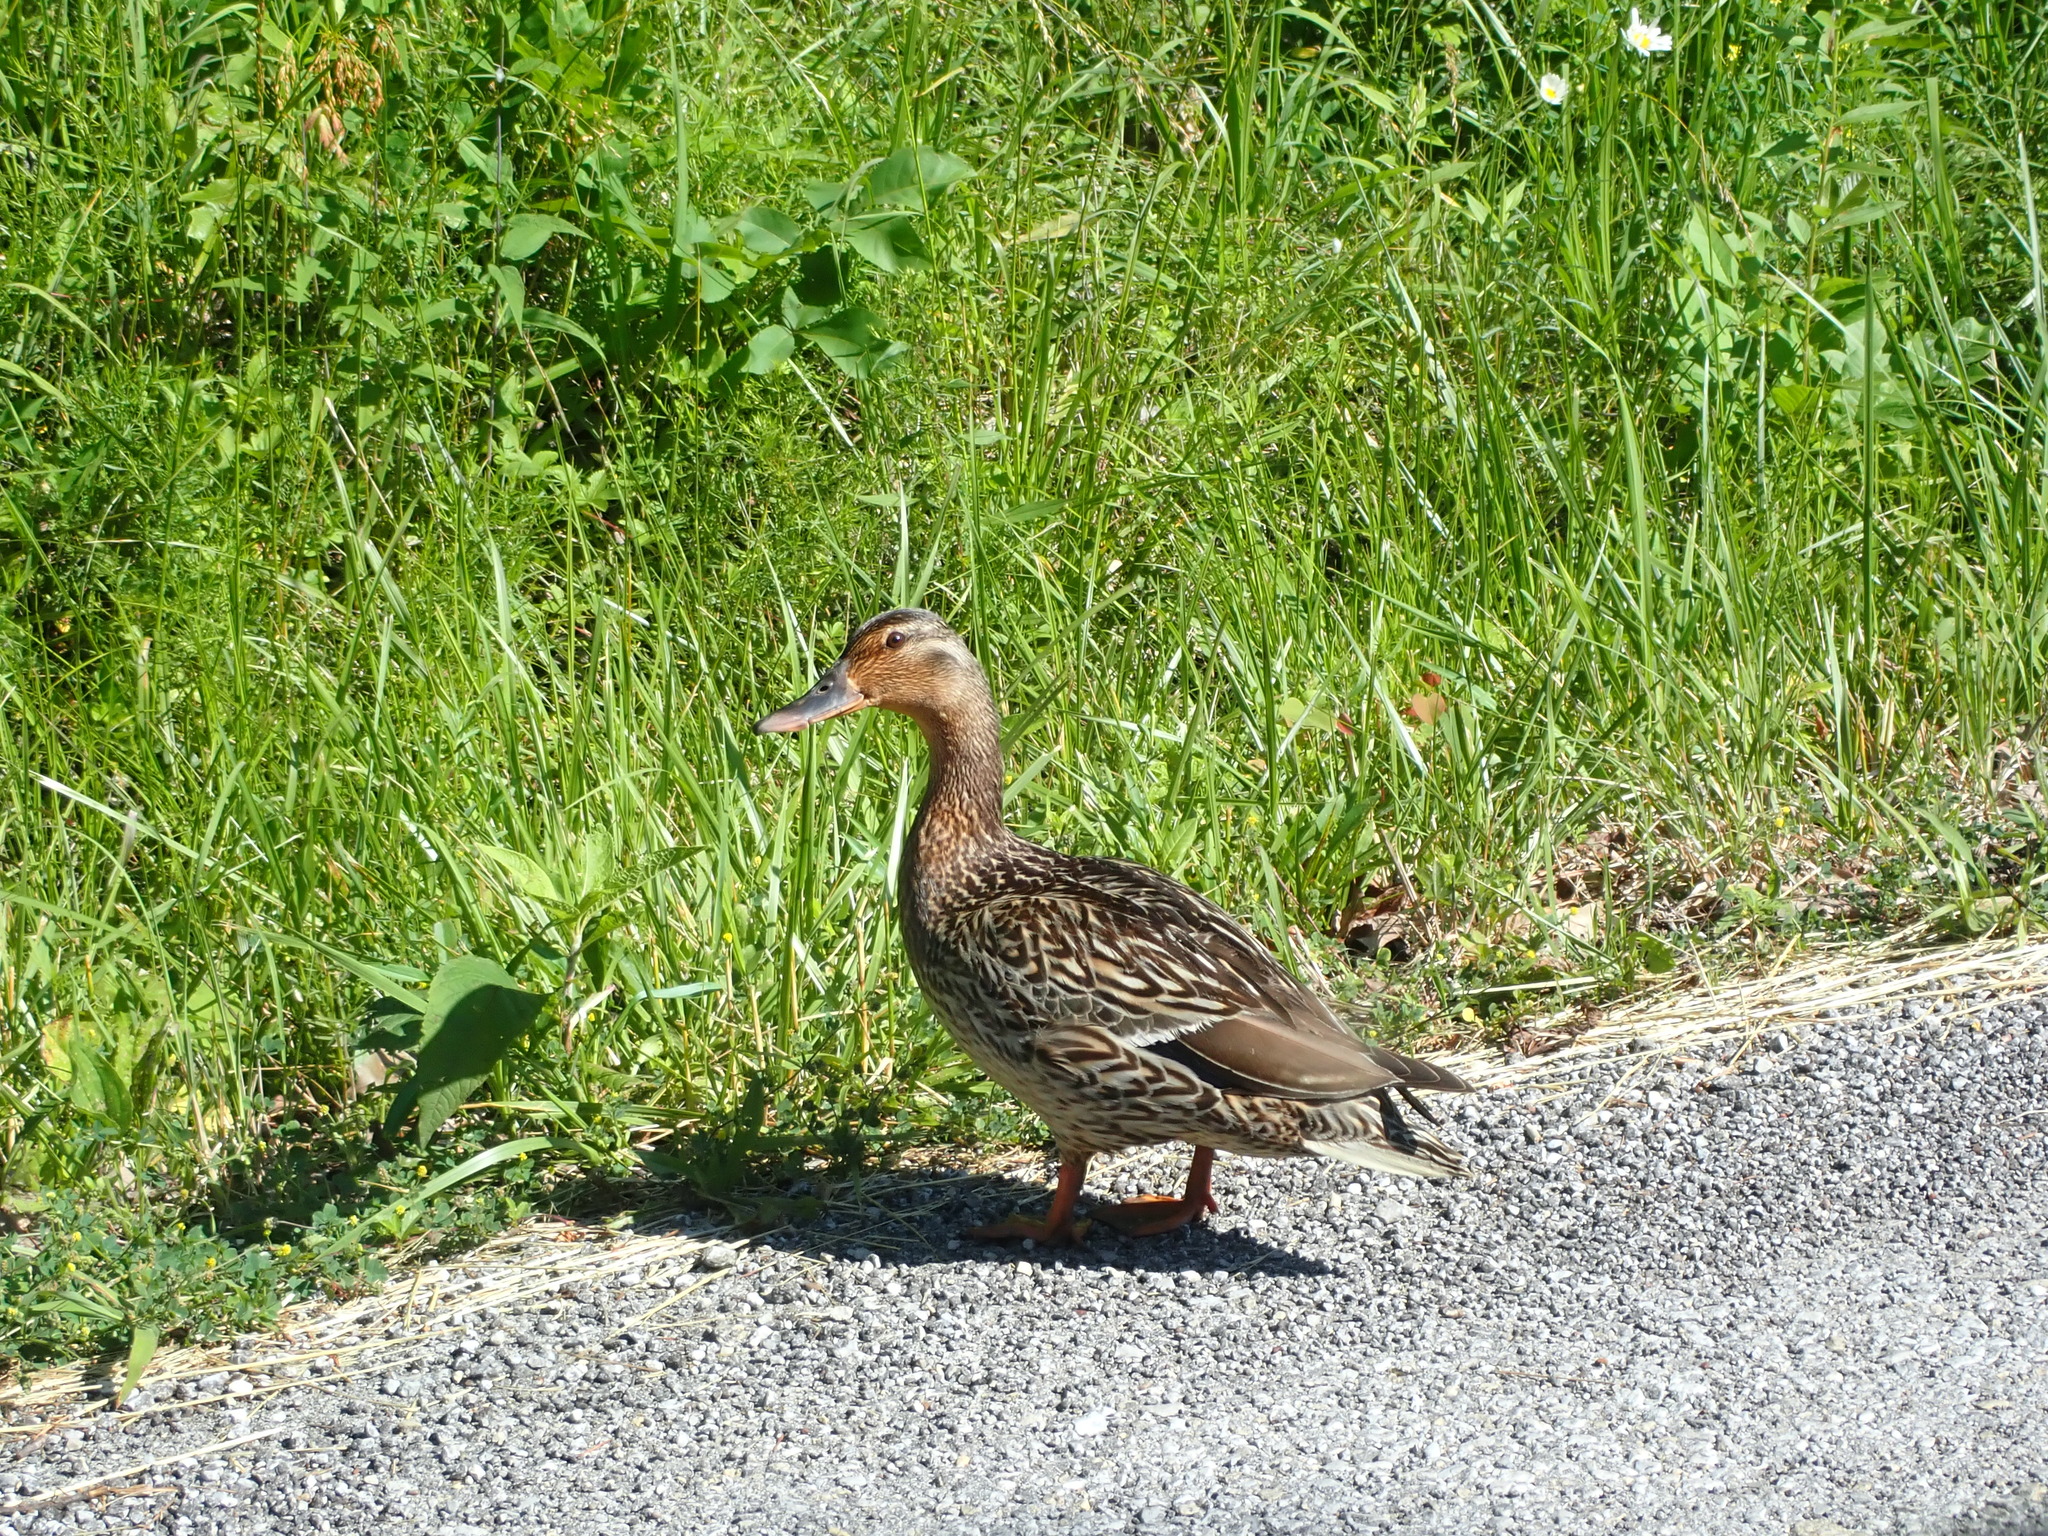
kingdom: Animalia
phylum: Chordata
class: Aves
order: Anseriformes
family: Anatidae
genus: Anas
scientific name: Anas platyrhynchos
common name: Mallard
